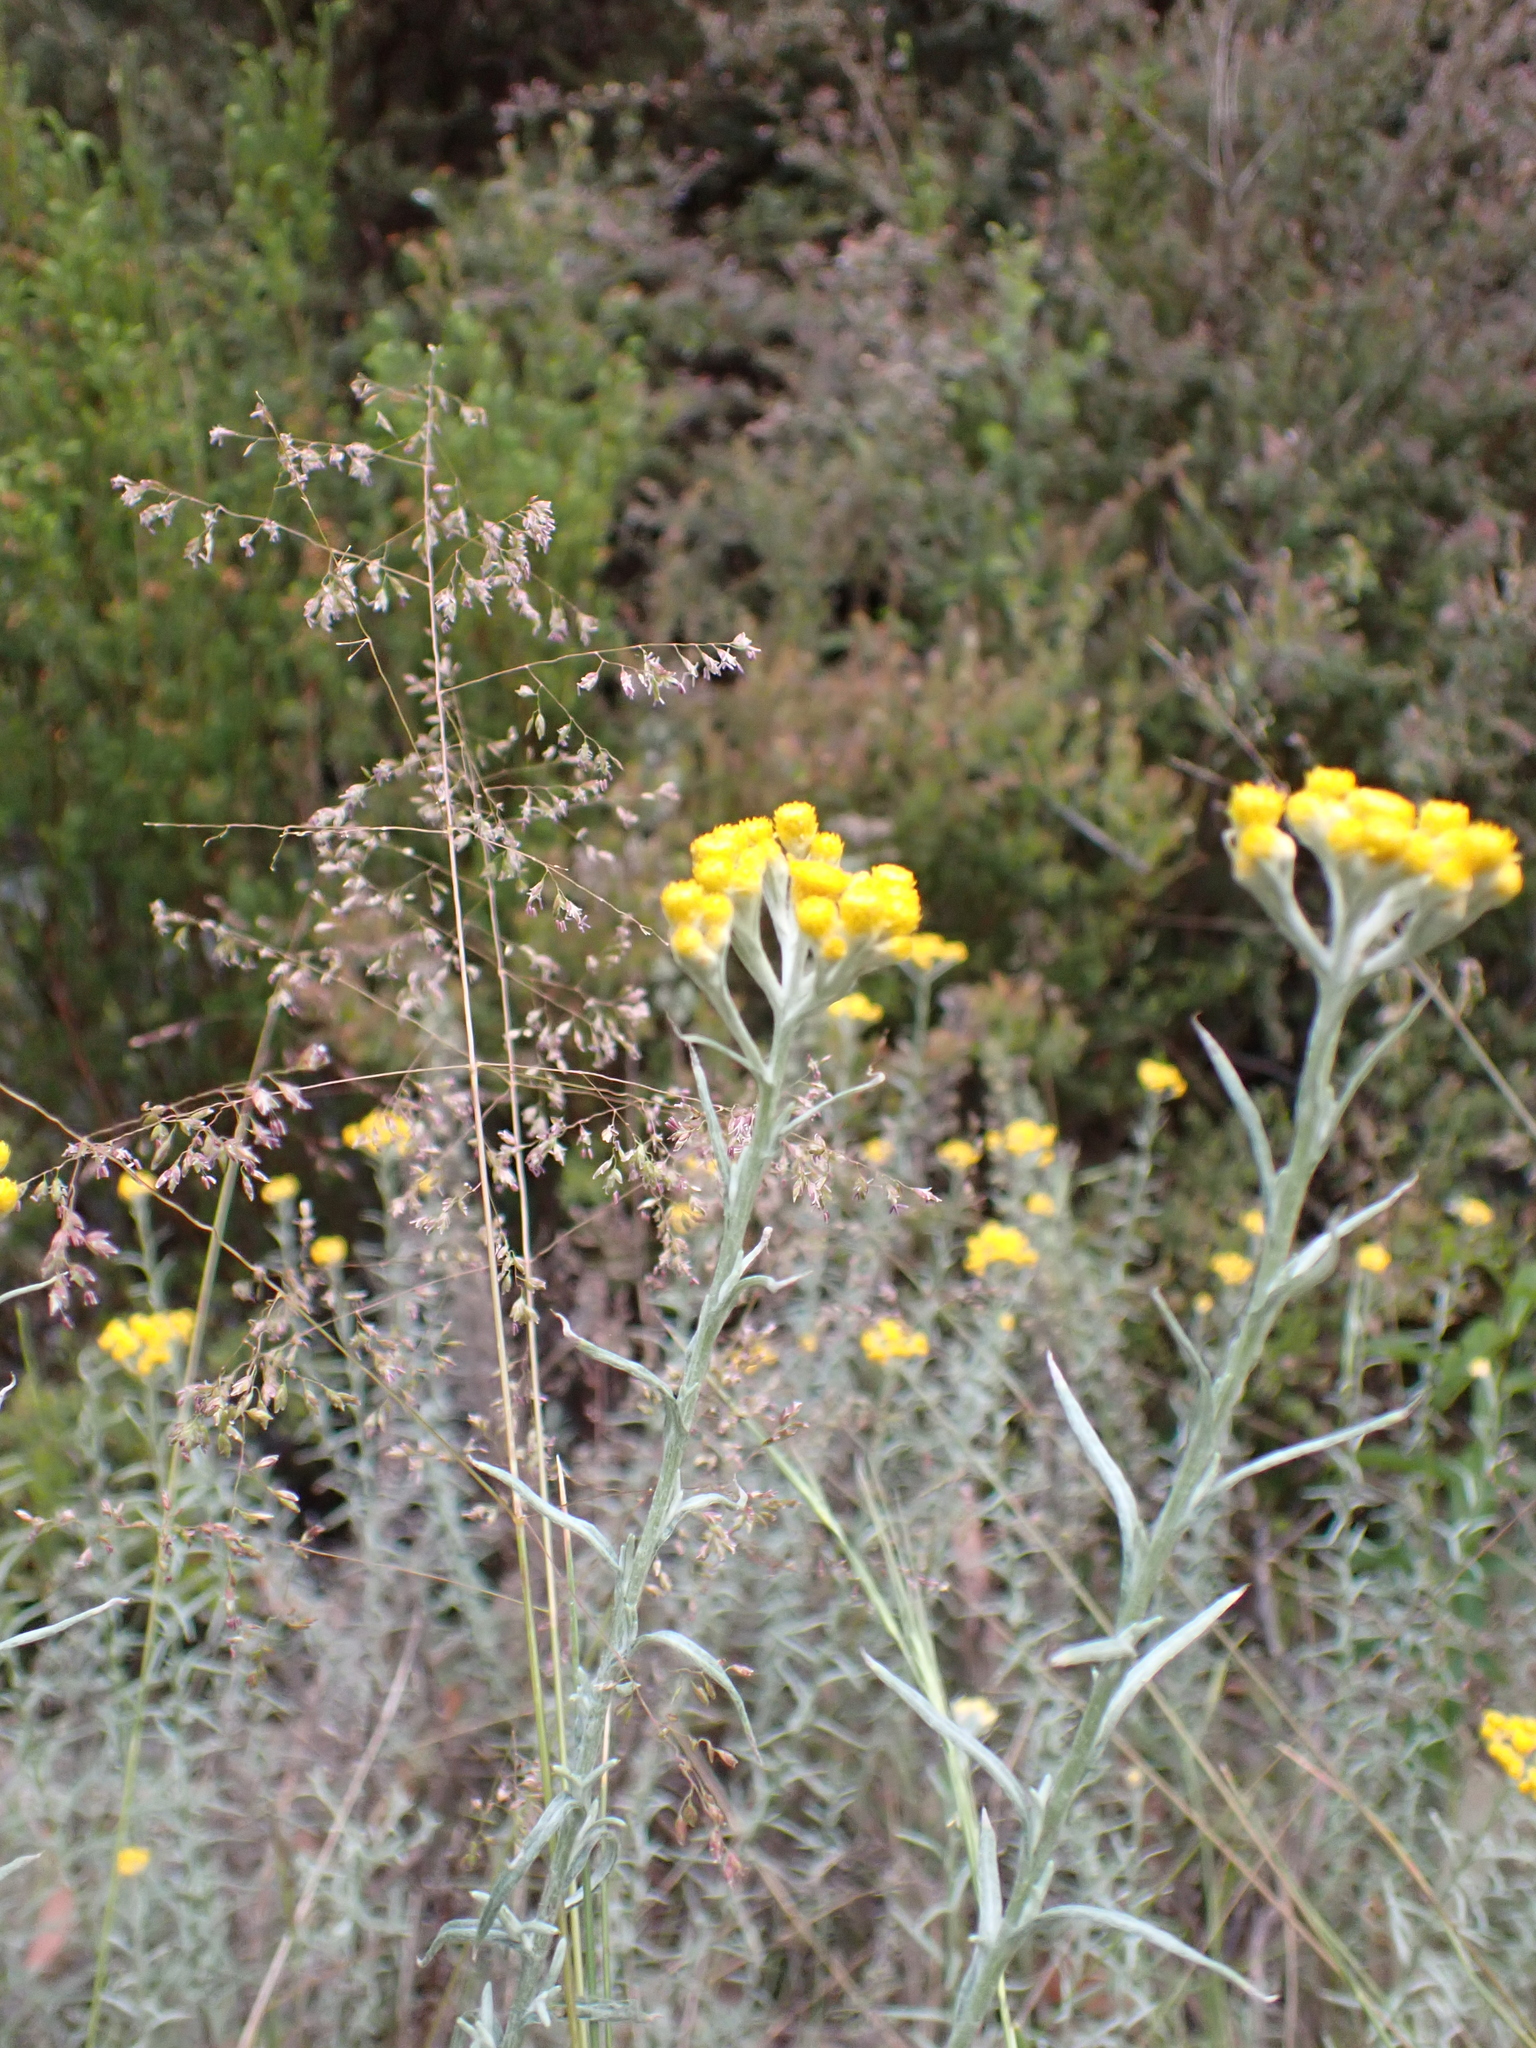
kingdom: Plantae
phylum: Tracheophyta
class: Magnoliopsida
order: Asterales
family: Asteraceae
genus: Chrysocephalum
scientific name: Chrysocephalum semipapposum
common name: Clustered everlasting
